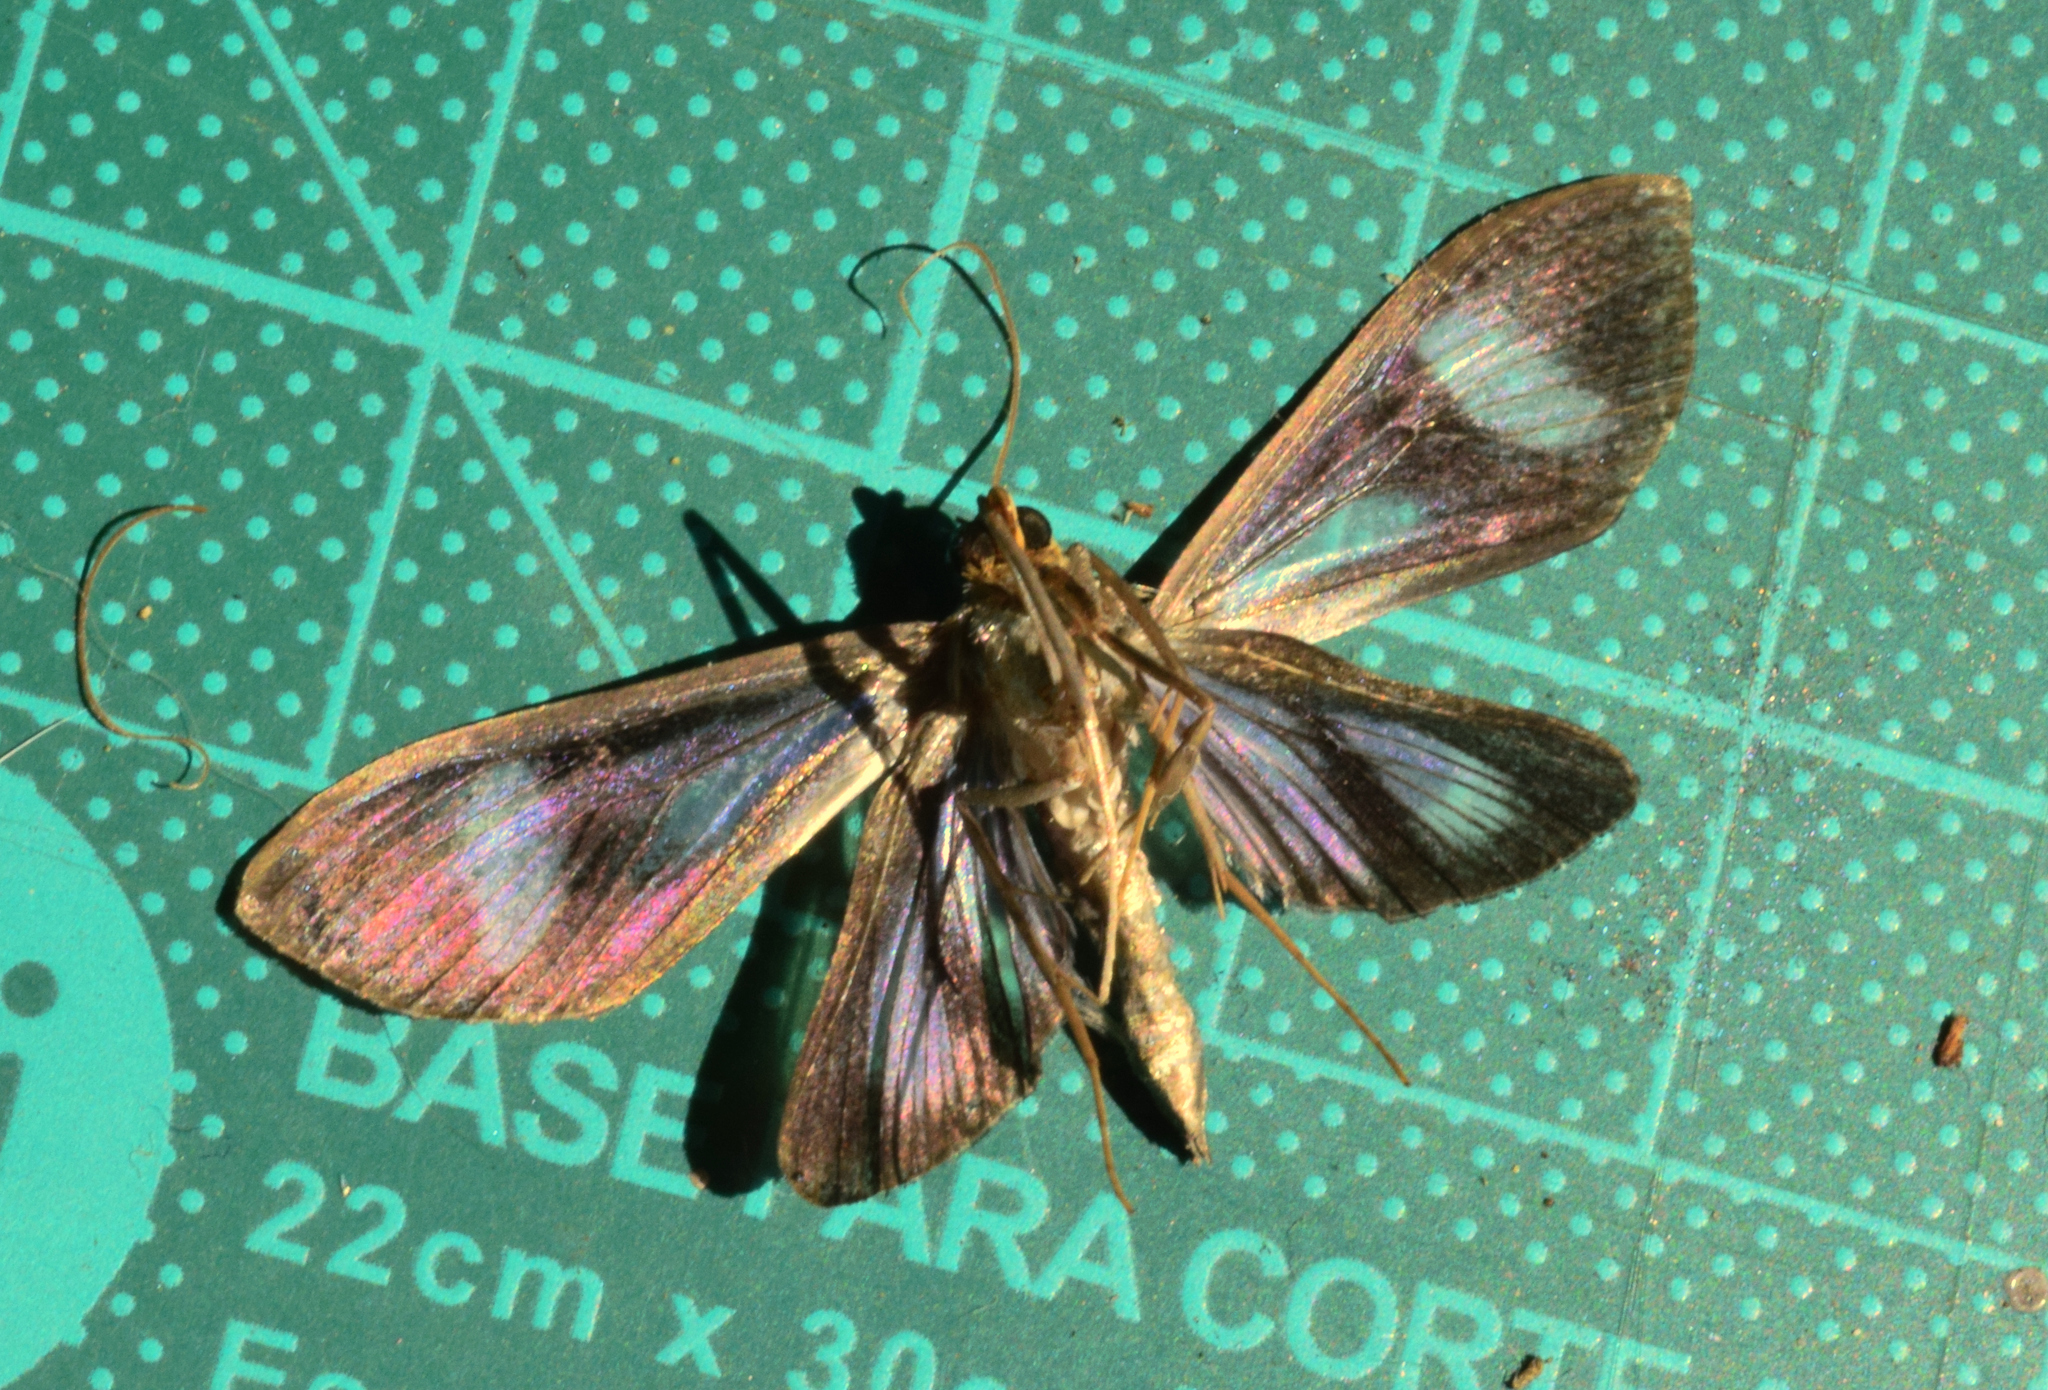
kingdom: Animalia
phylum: Arthropoda
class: Insecta
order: Lepidoptera
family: Crambidae
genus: Phostria
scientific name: Phostria euagra
